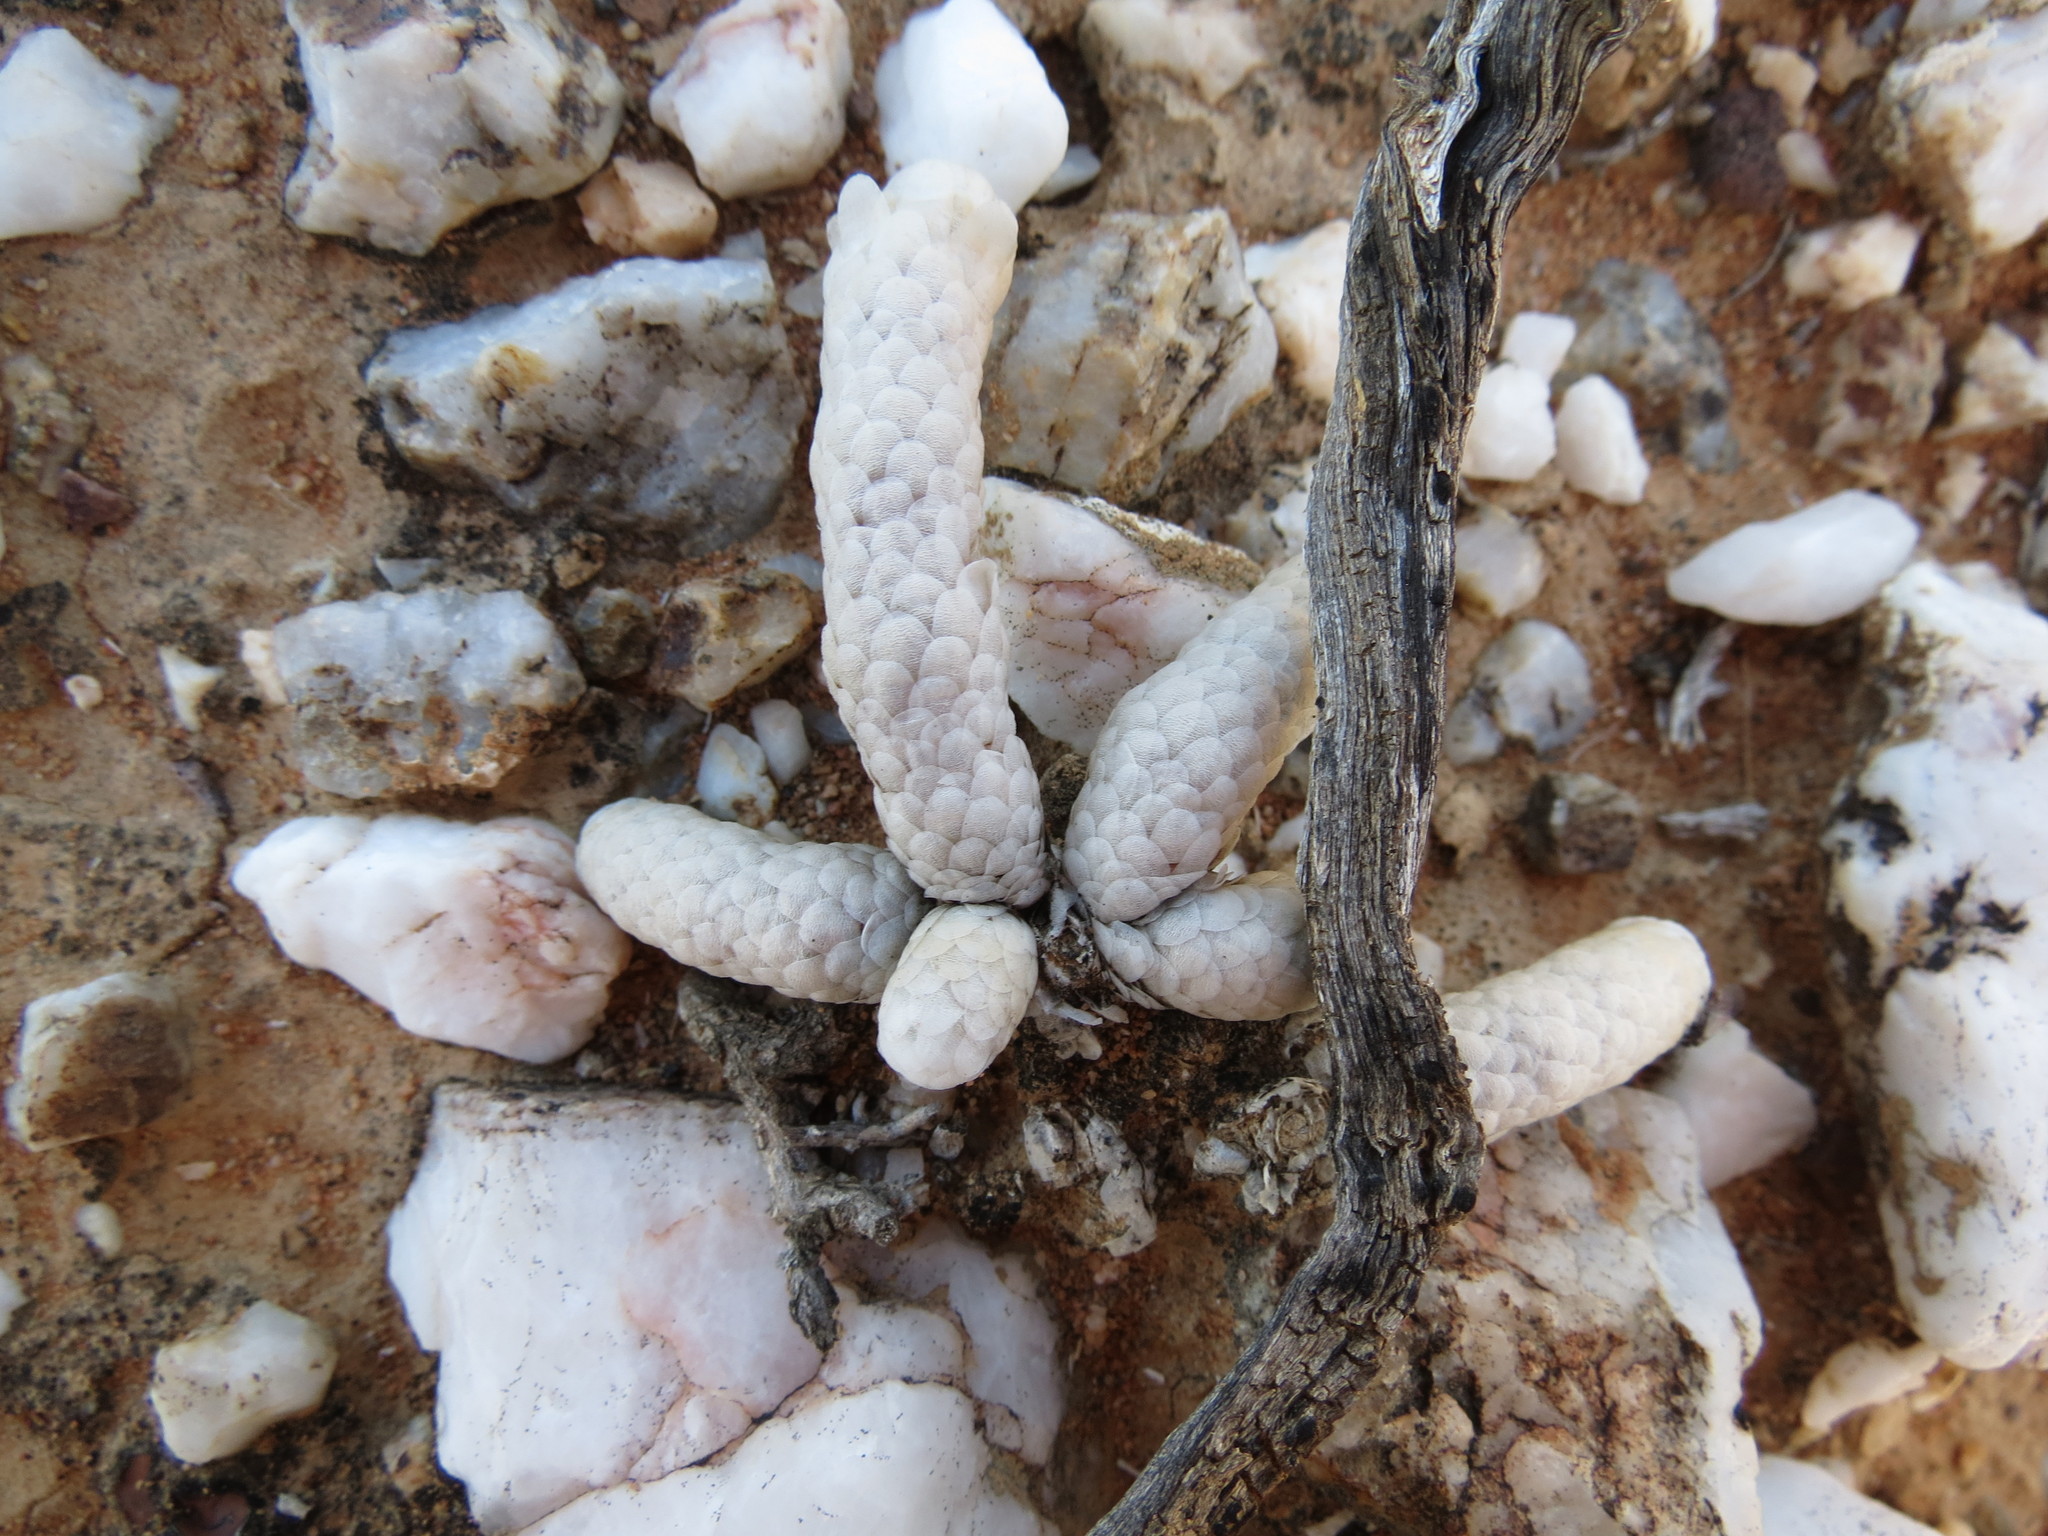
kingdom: Plantae
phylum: Tracheophyta
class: Magnoliopsida
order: Caryophyllales
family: Anacampserotaceae
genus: Avonia
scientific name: Avonia papyracea
